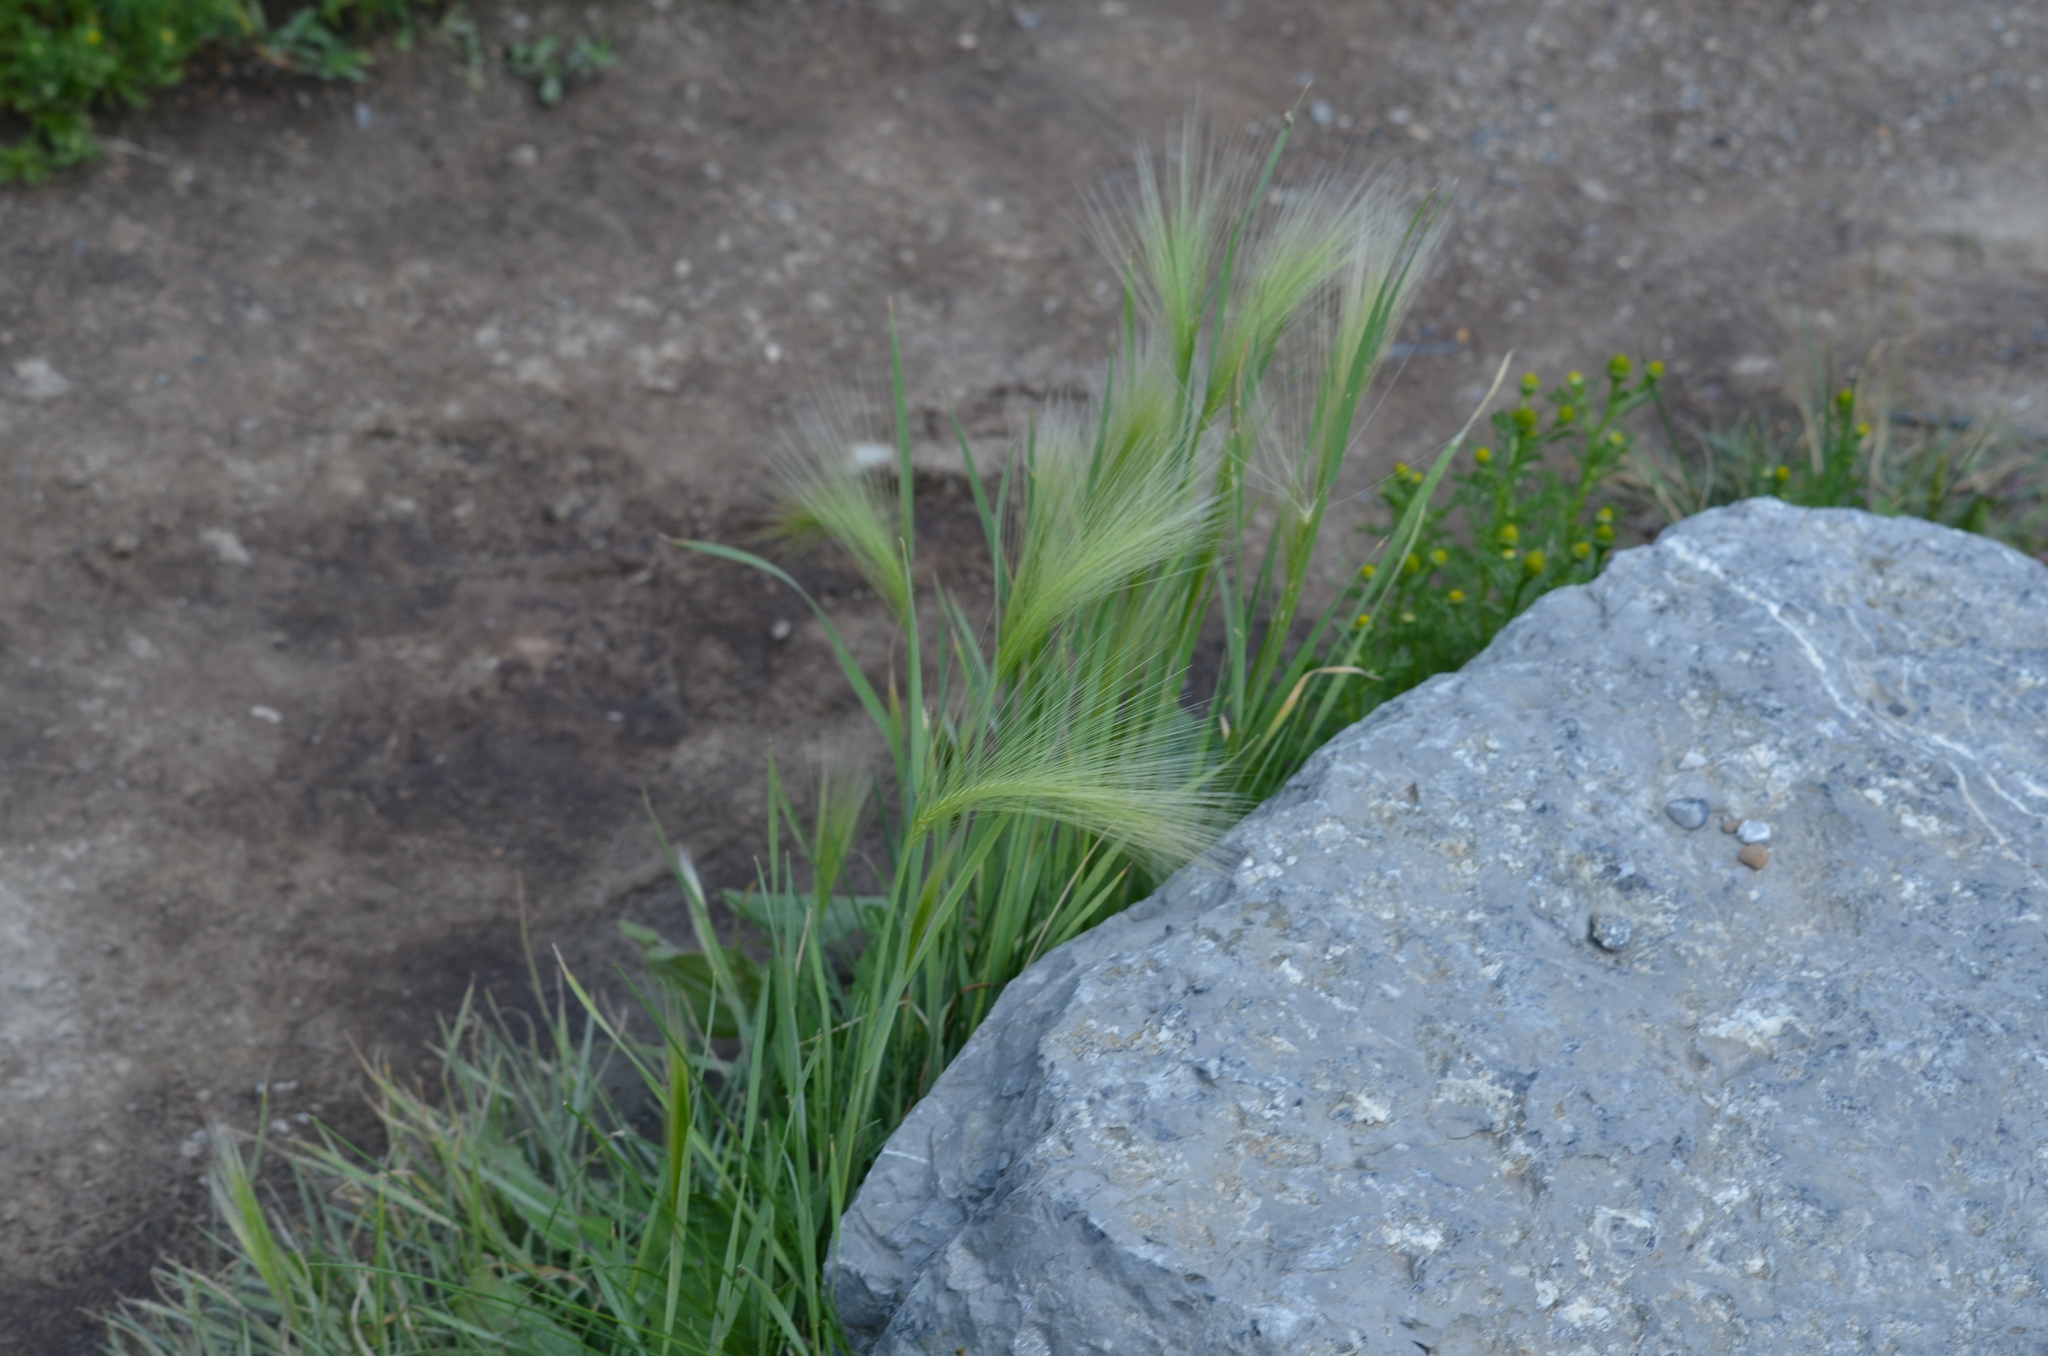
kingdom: Plantae
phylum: Tracheophyta
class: Liliopsida
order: Poales
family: Poaceae
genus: Hordeum
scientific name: Hordeum jubatum
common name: Foxtail barley
